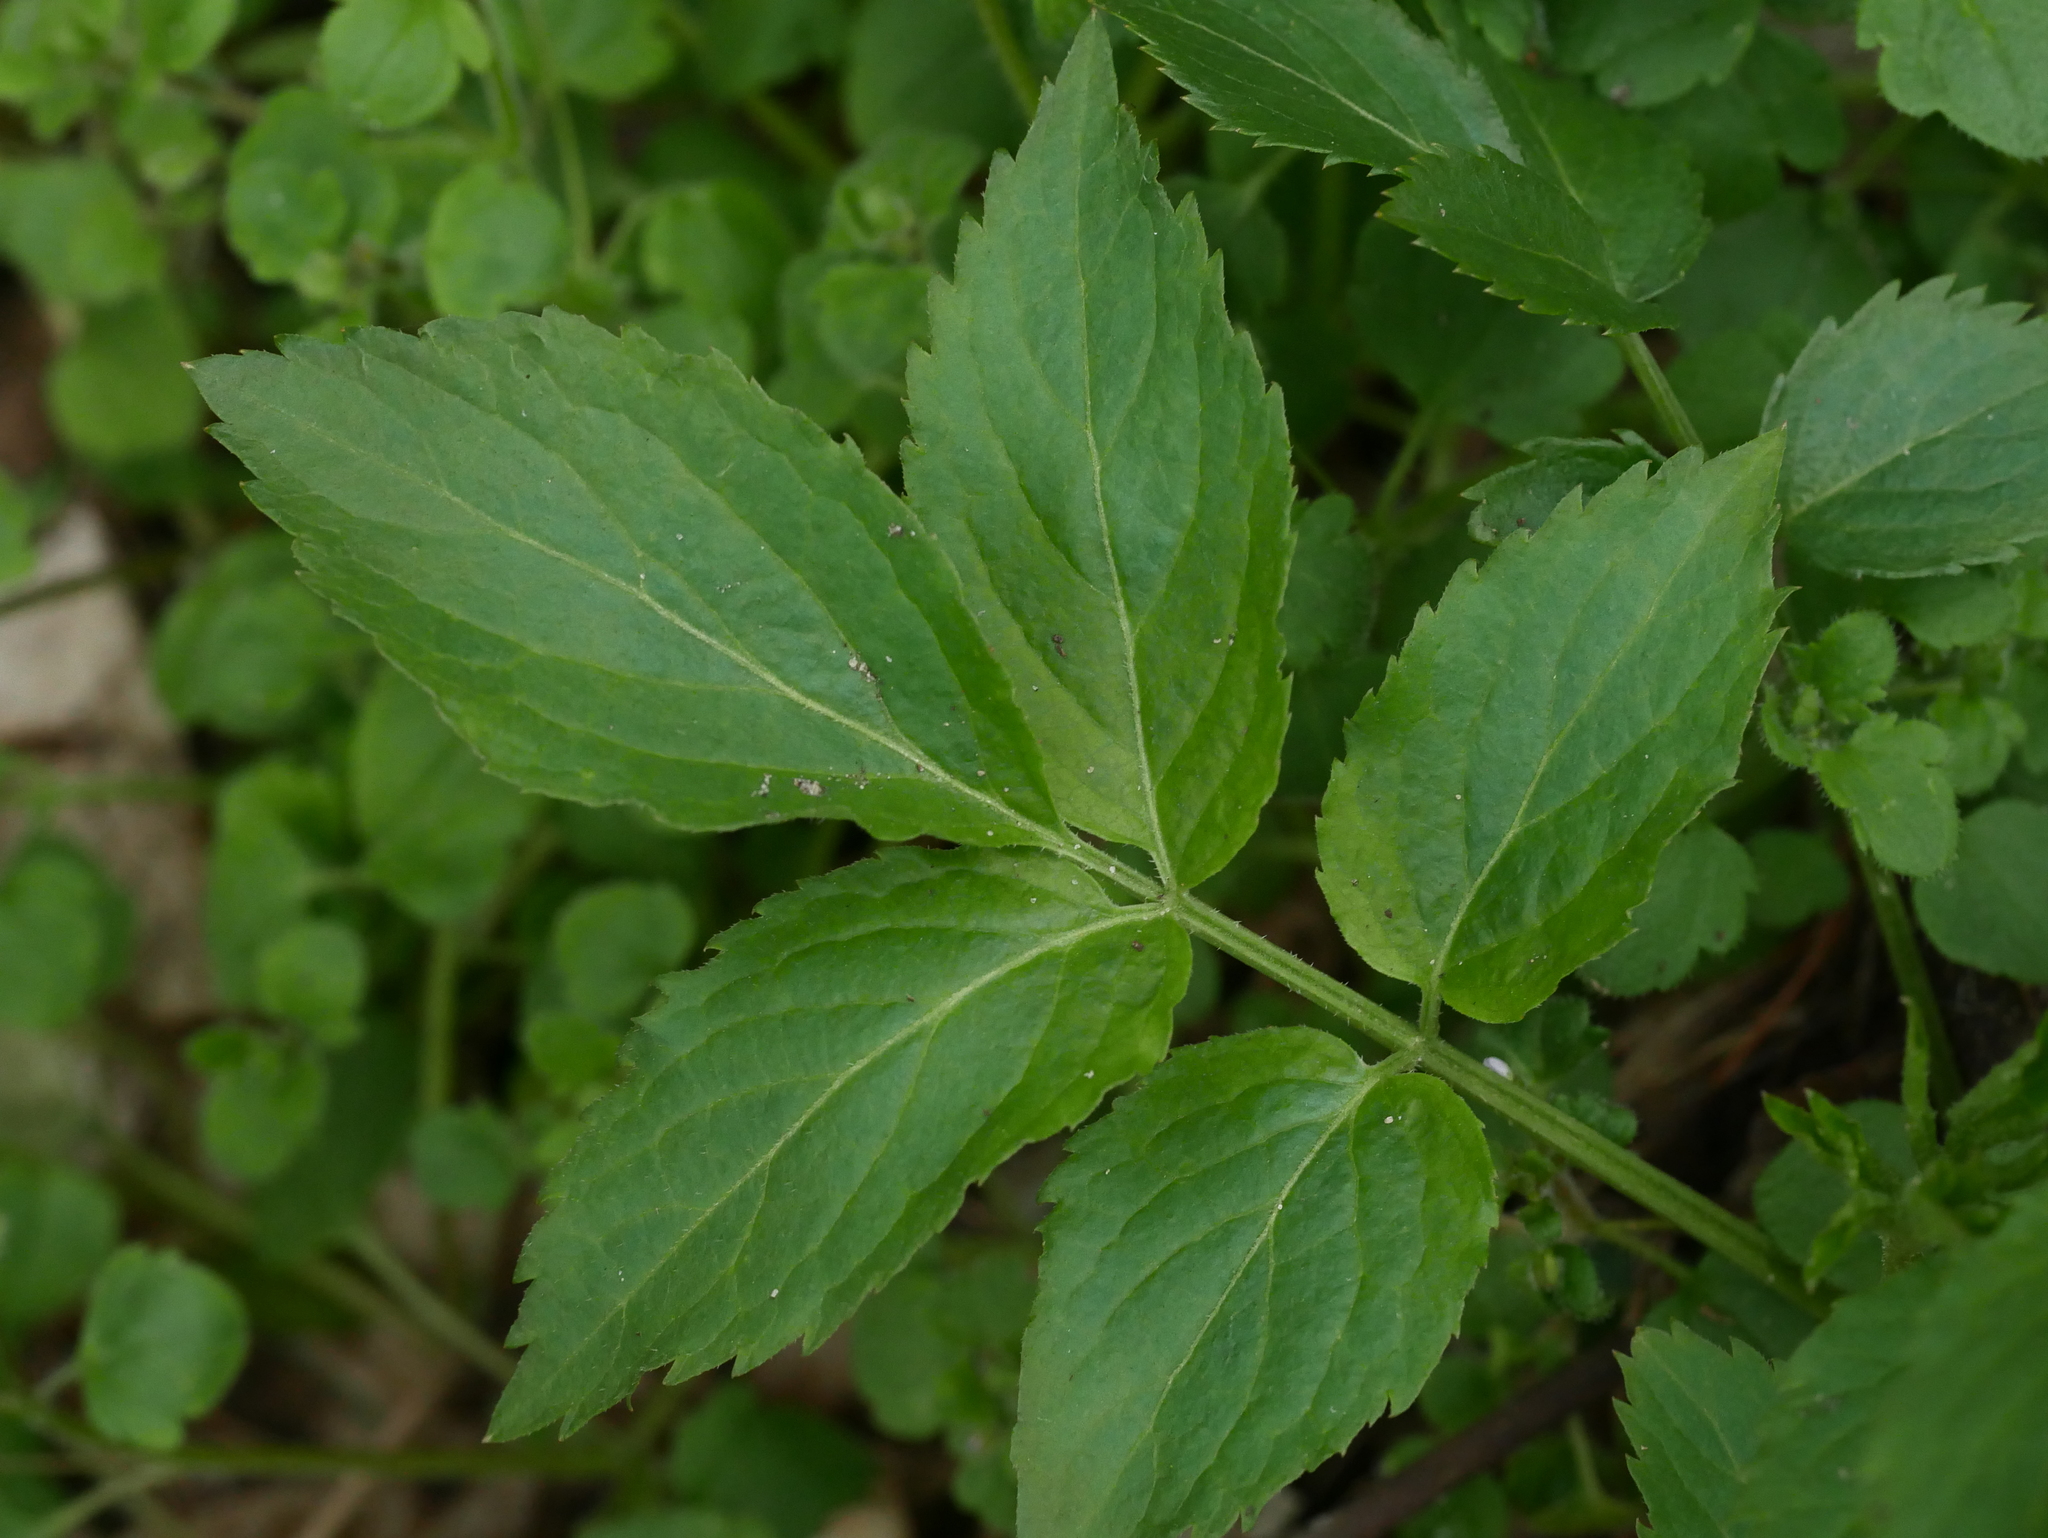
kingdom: Plantae
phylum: Tracheophyta
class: Magnoliopsida
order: Dipsacales
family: Viburnaceae
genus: Sambucus
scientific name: Sambucus nigra
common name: Elder
